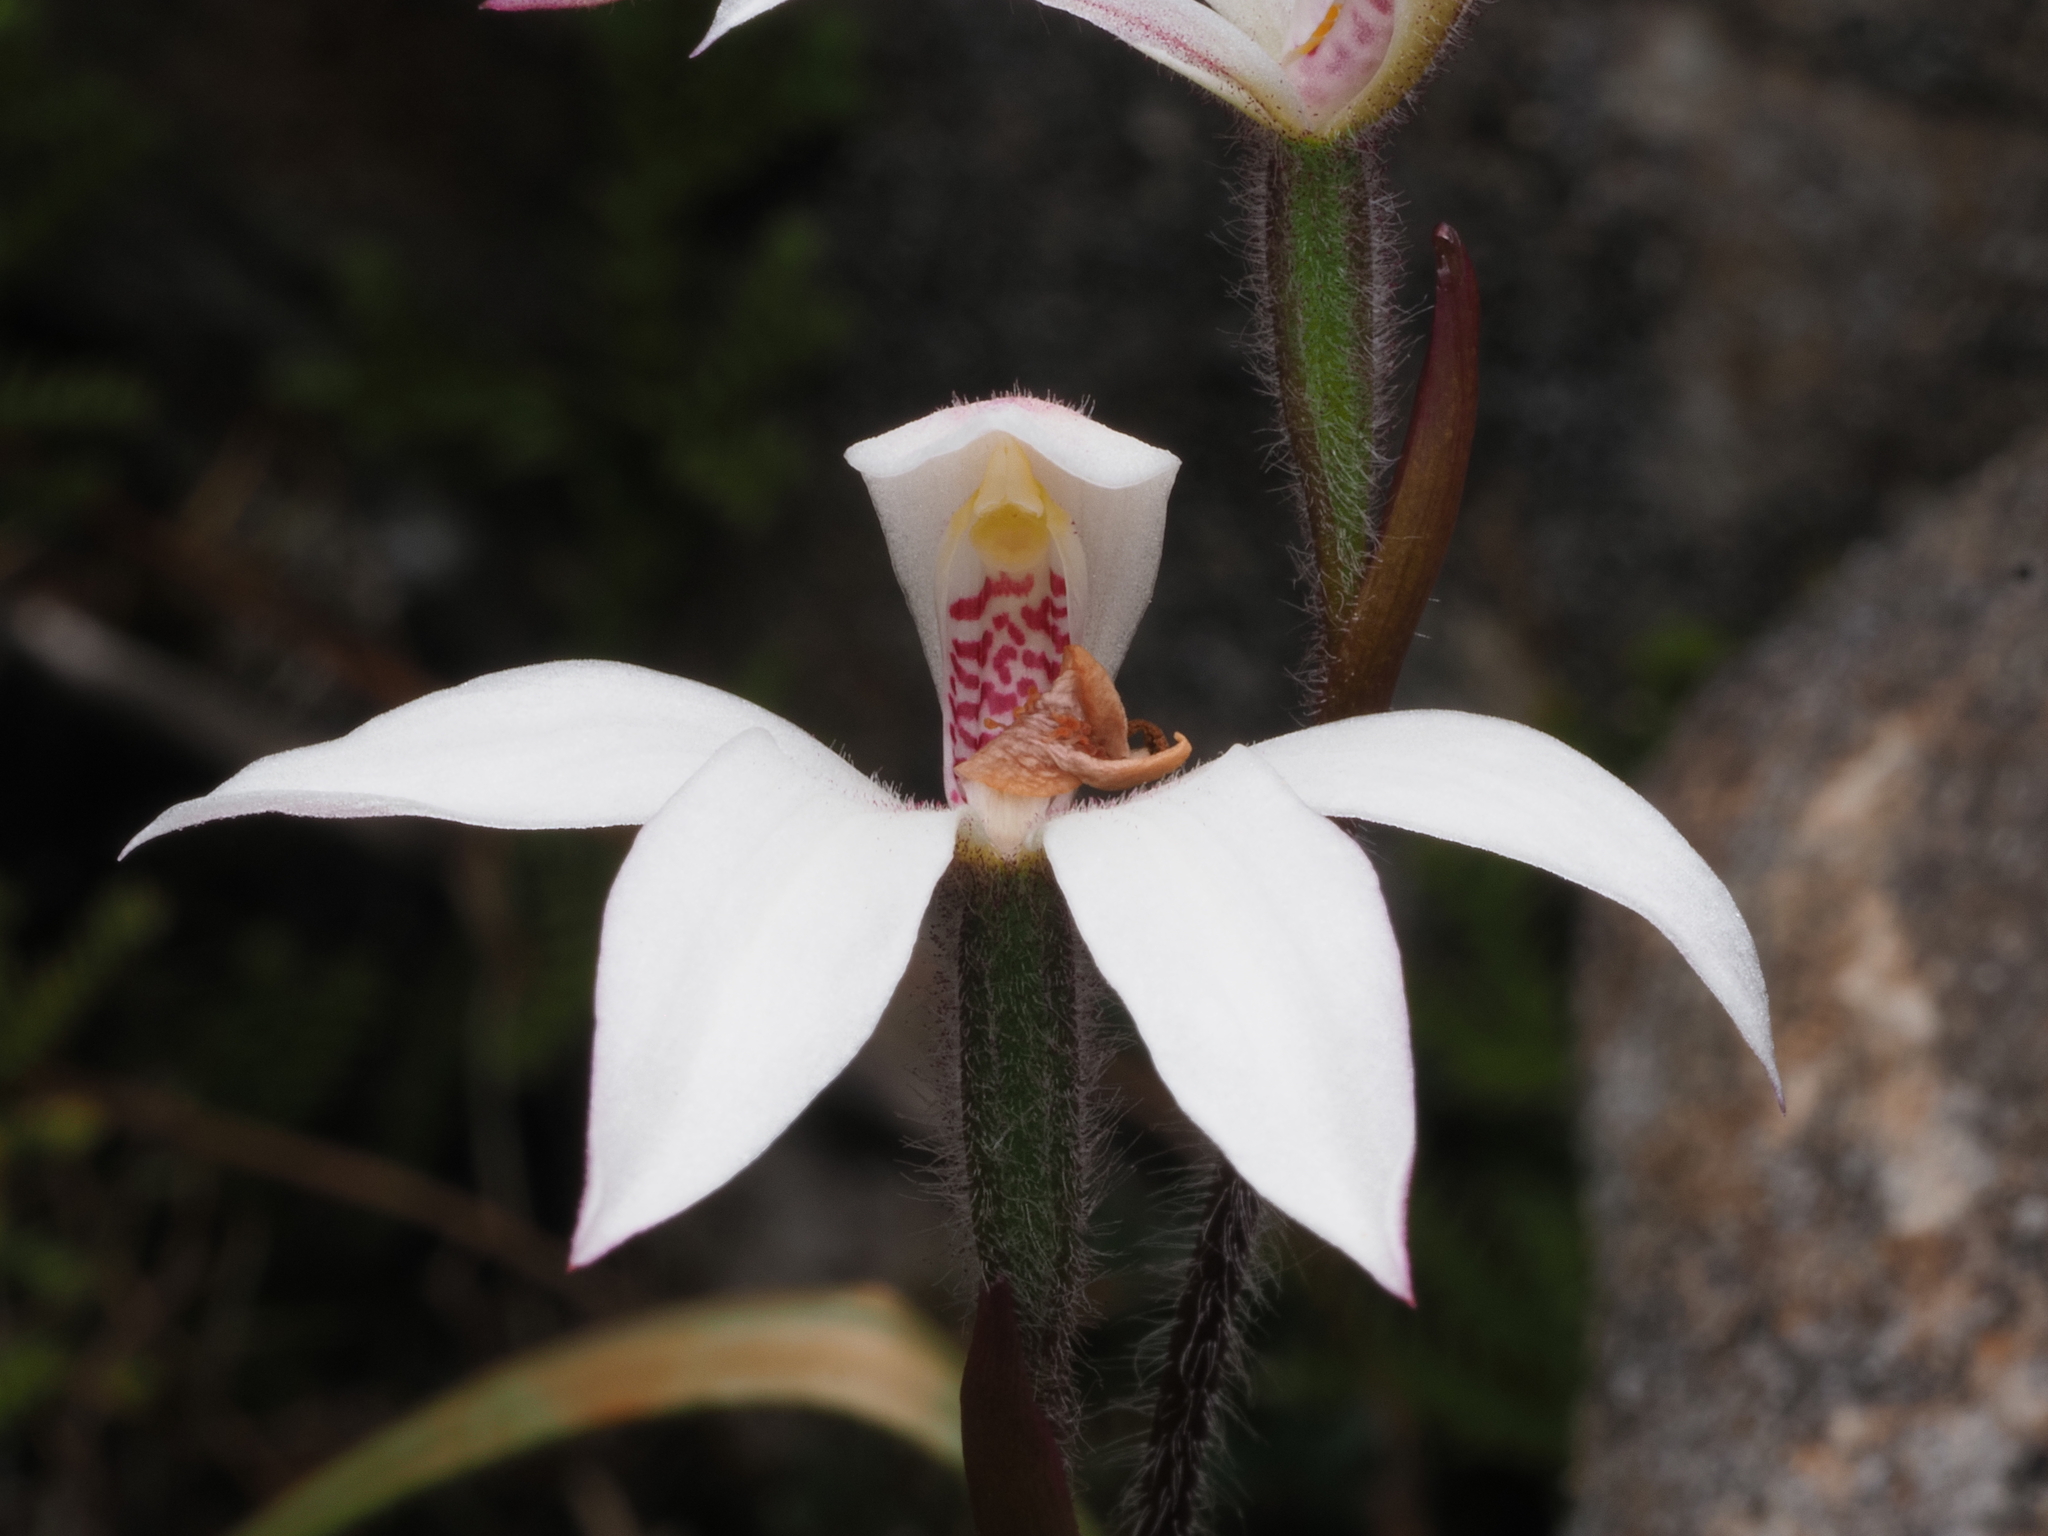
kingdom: Plantae
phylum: Tracheophyta
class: Liliopsida
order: Asparagales
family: Orchidaceae
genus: Caladenia
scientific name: Caladenia lyallii
